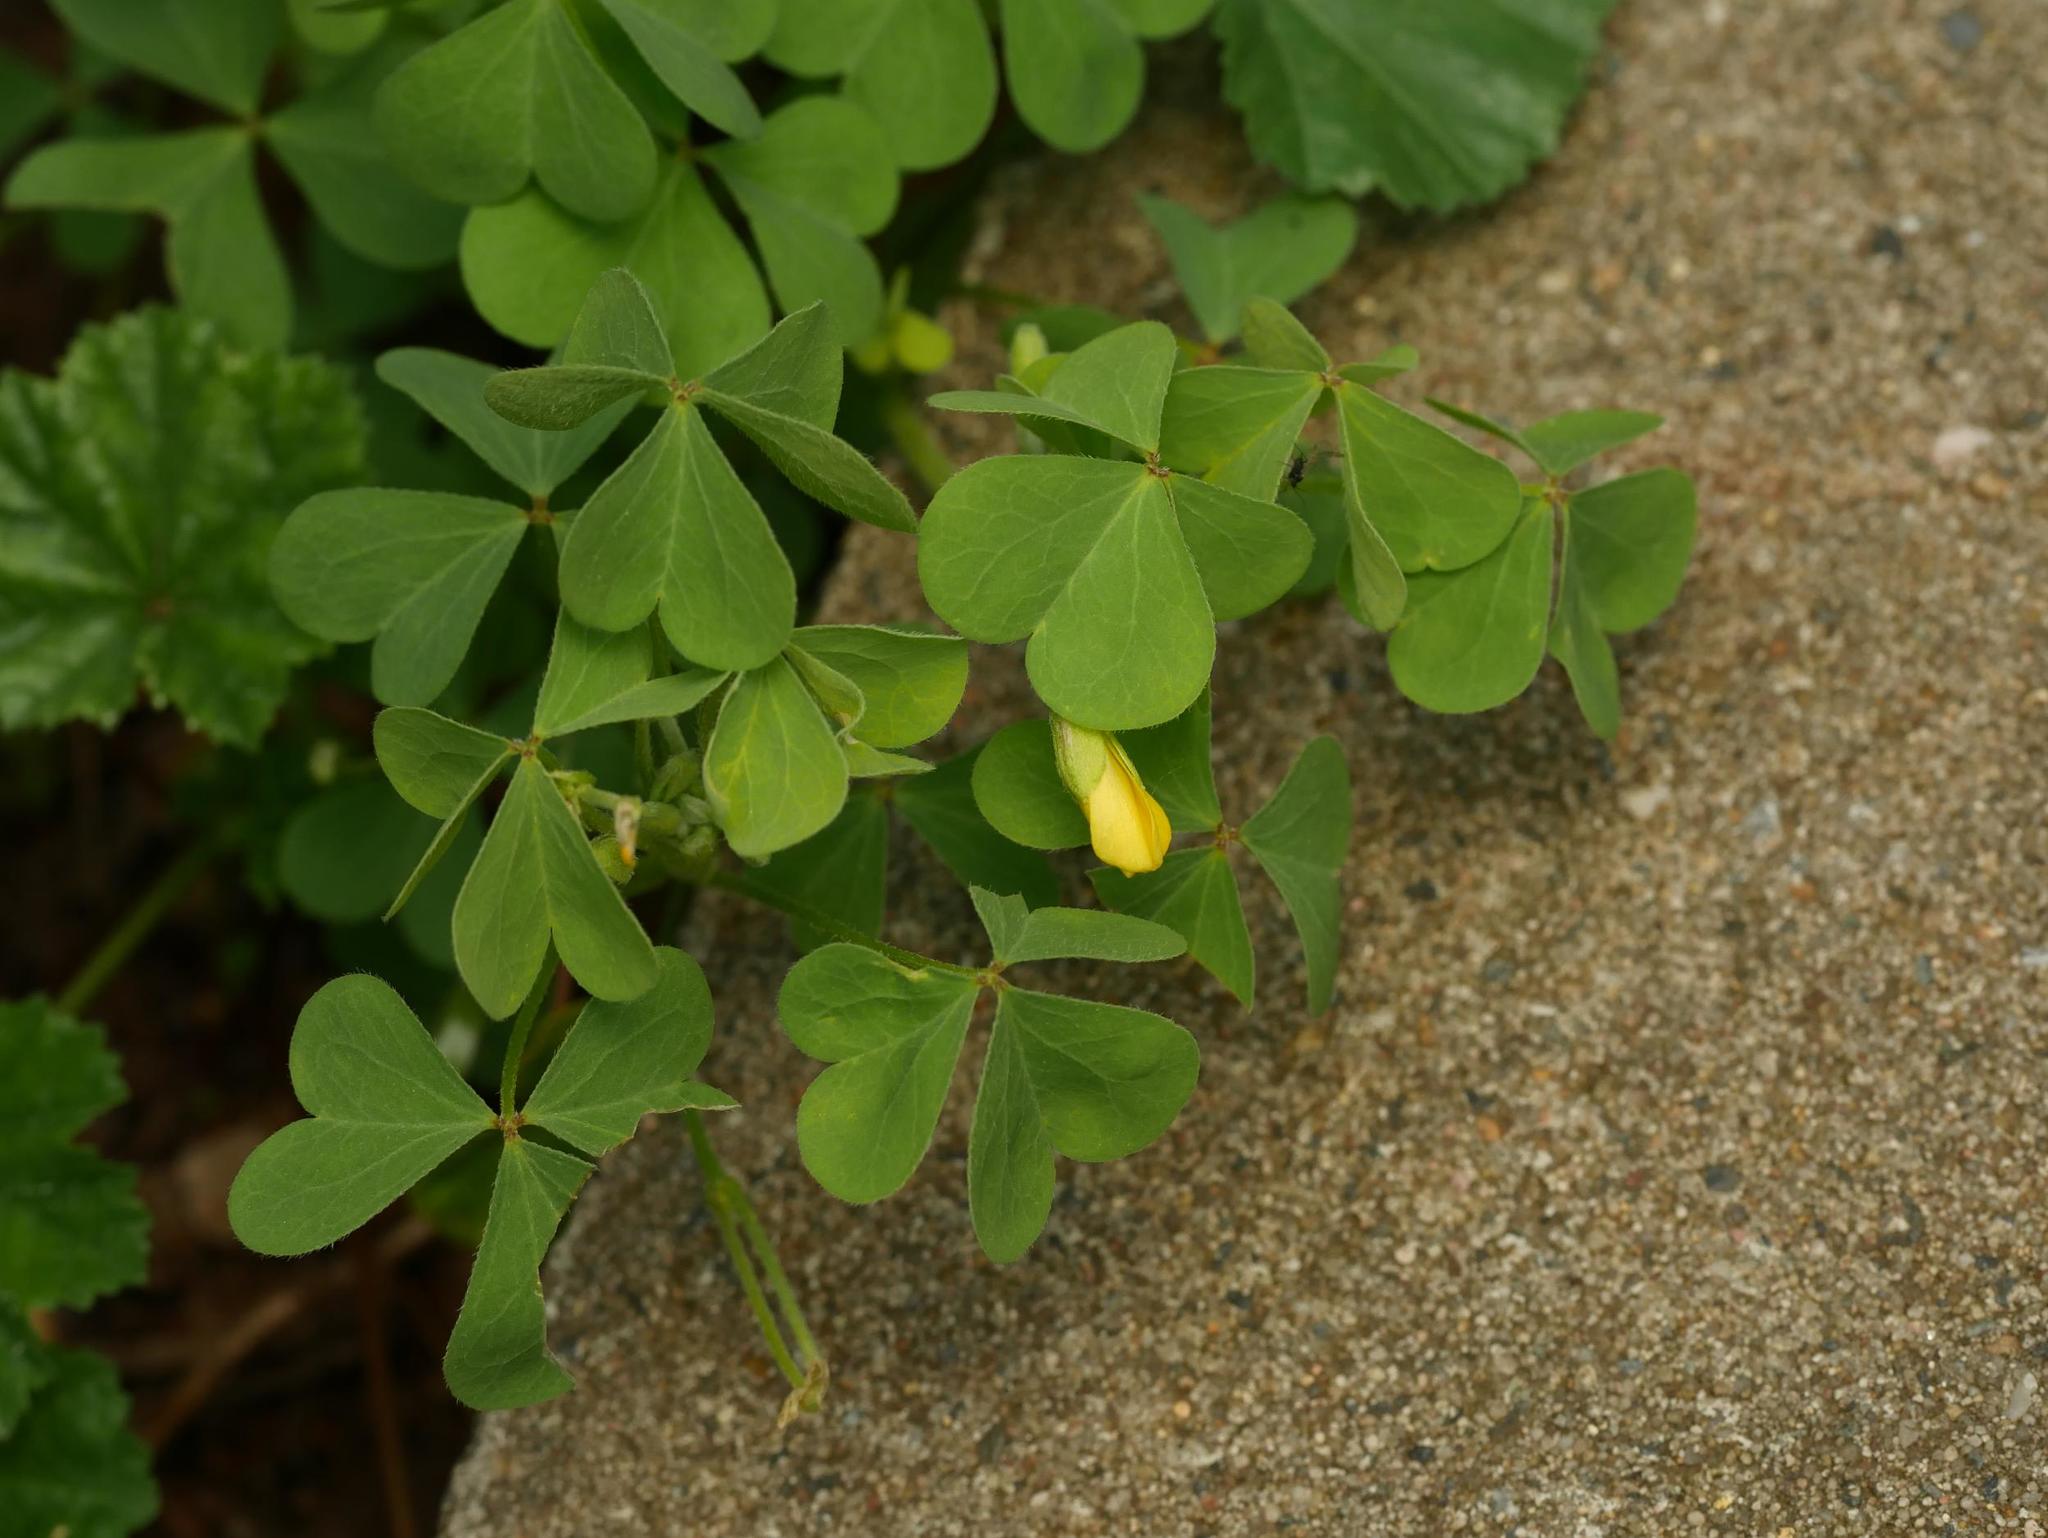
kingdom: Plantae
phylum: Tracheophyta
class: Magnoliopsida
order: Oxalidales
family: Oxalidaceae
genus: Oxalis
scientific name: Oxalis corniculata
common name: Procumbent yellow-sorrel
